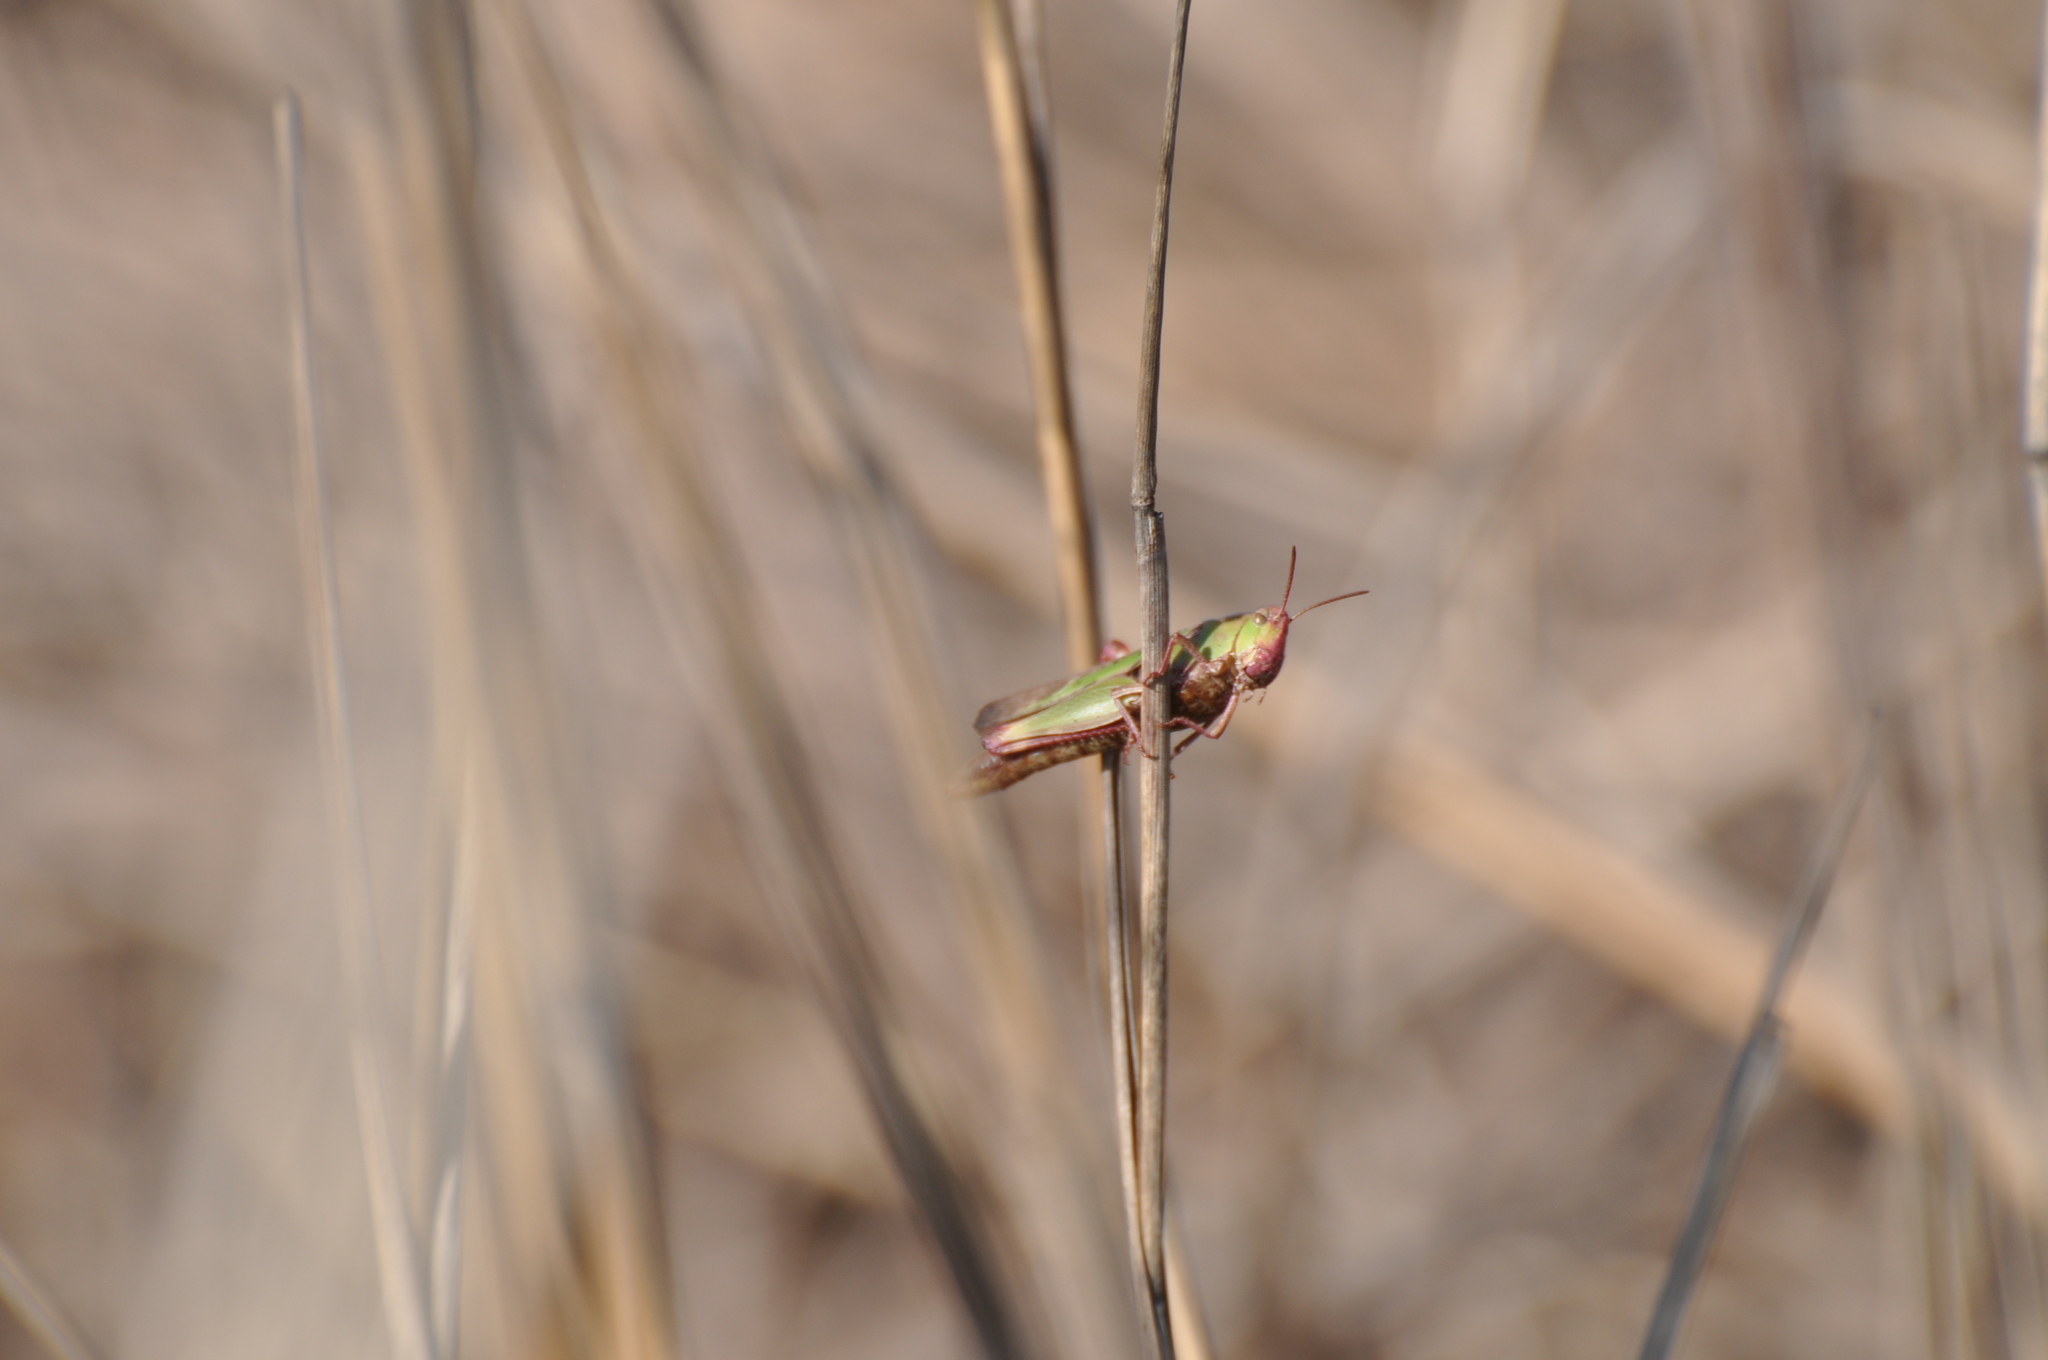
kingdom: Animalia
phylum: Arthropoda
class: Insecta
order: Orthoptera
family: Acrididae
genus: Chortophaga
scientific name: Chortophaga viridifasciata
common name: Green-striped grasshopper
